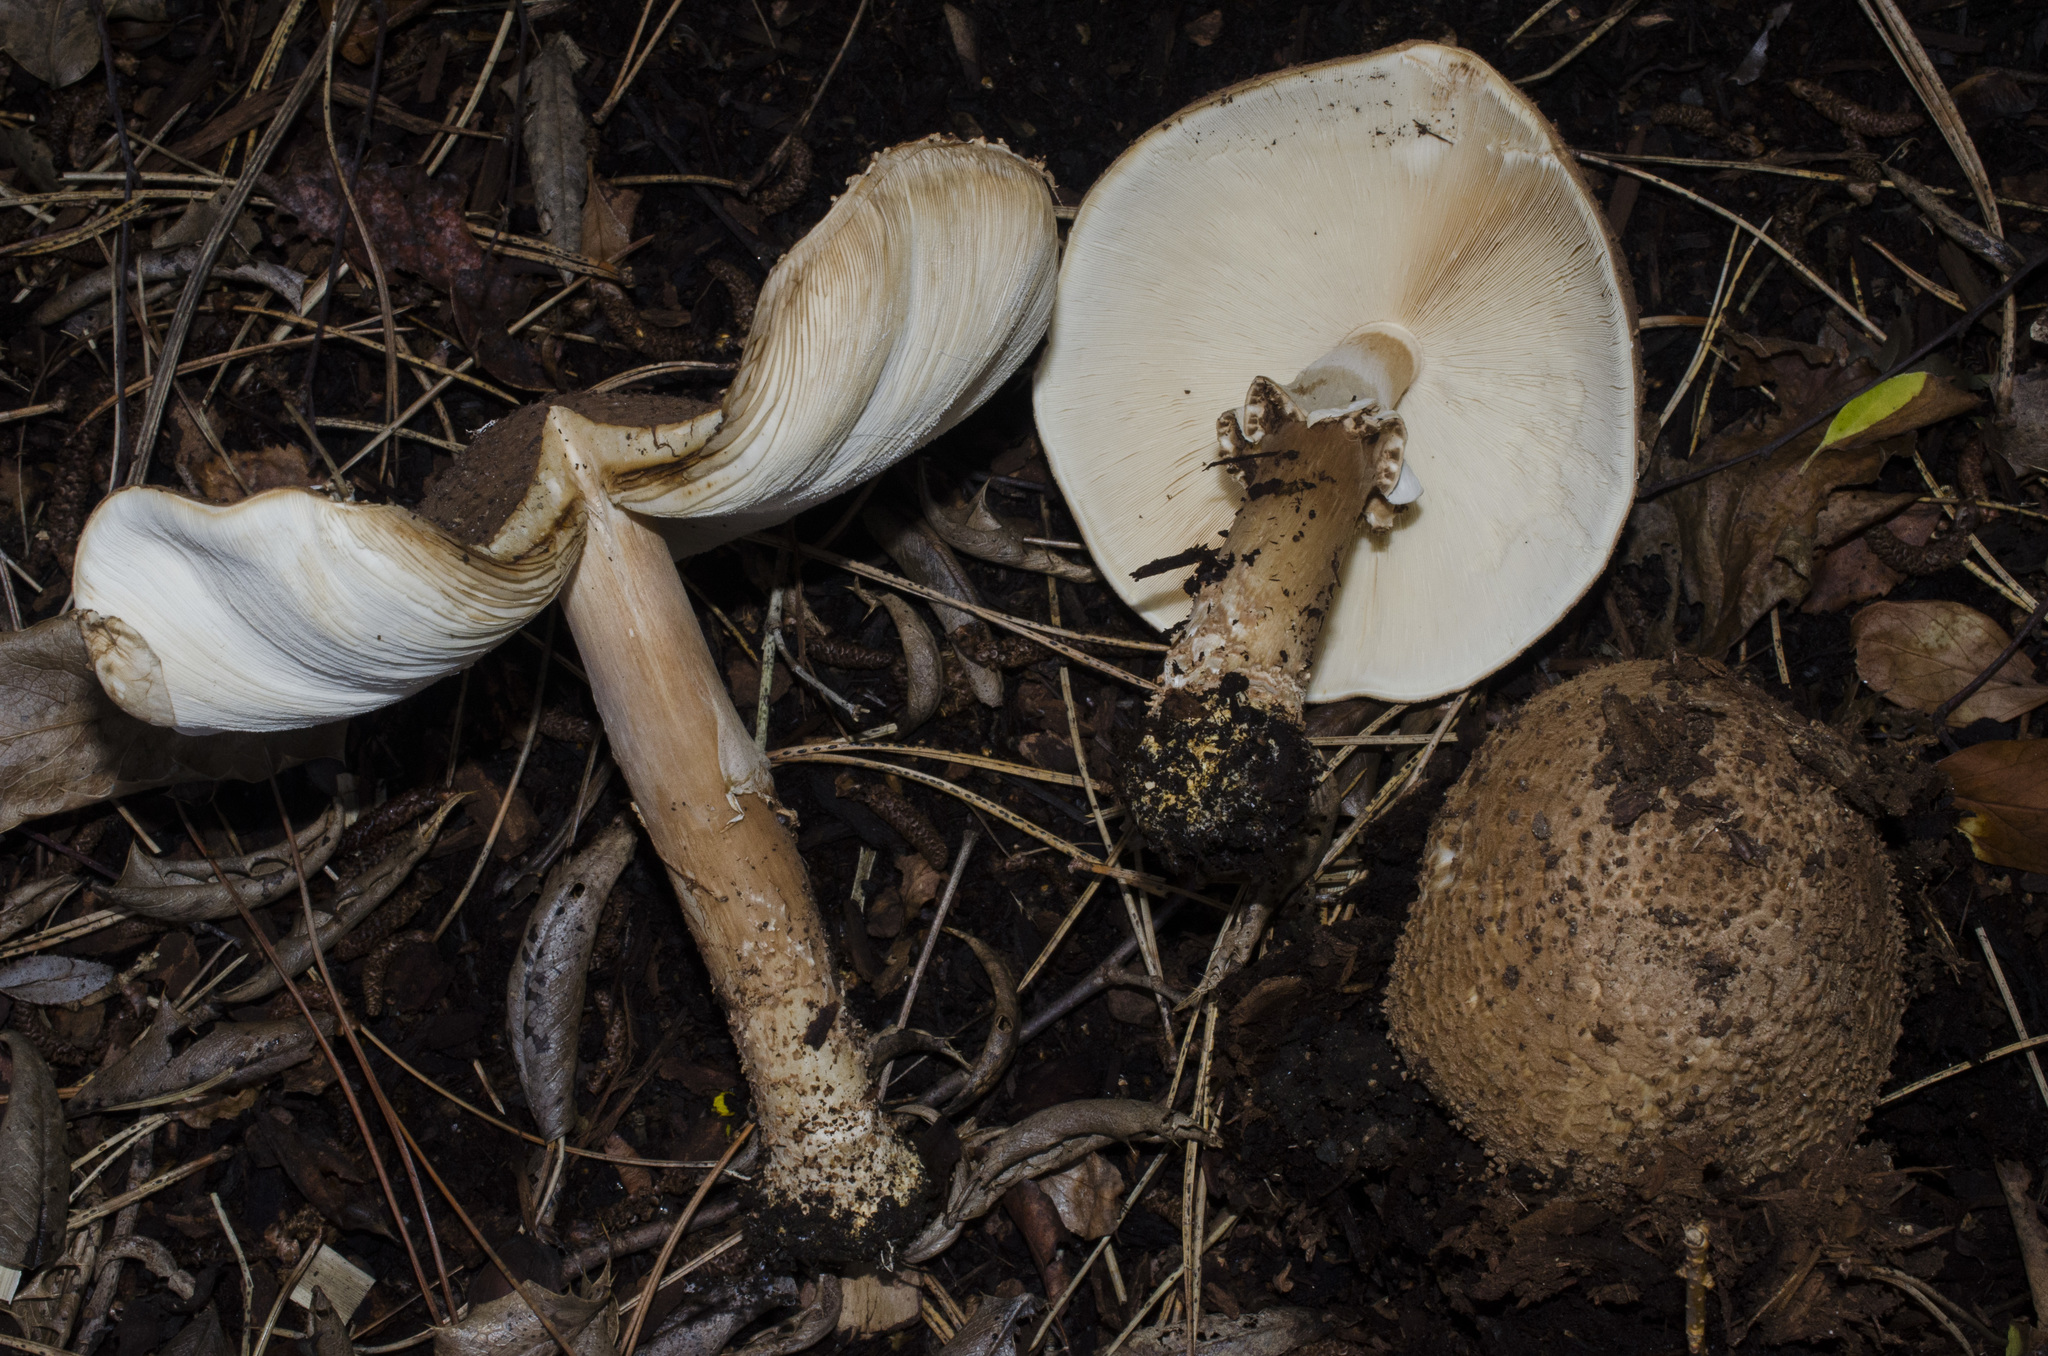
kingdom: Fungi
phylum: Basidiomycota
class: Agaricomycetes
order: Agaricales
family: Agaricaceae
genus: Echinoderma
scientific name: Echinoderma asperum
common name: Freckled dapperling
